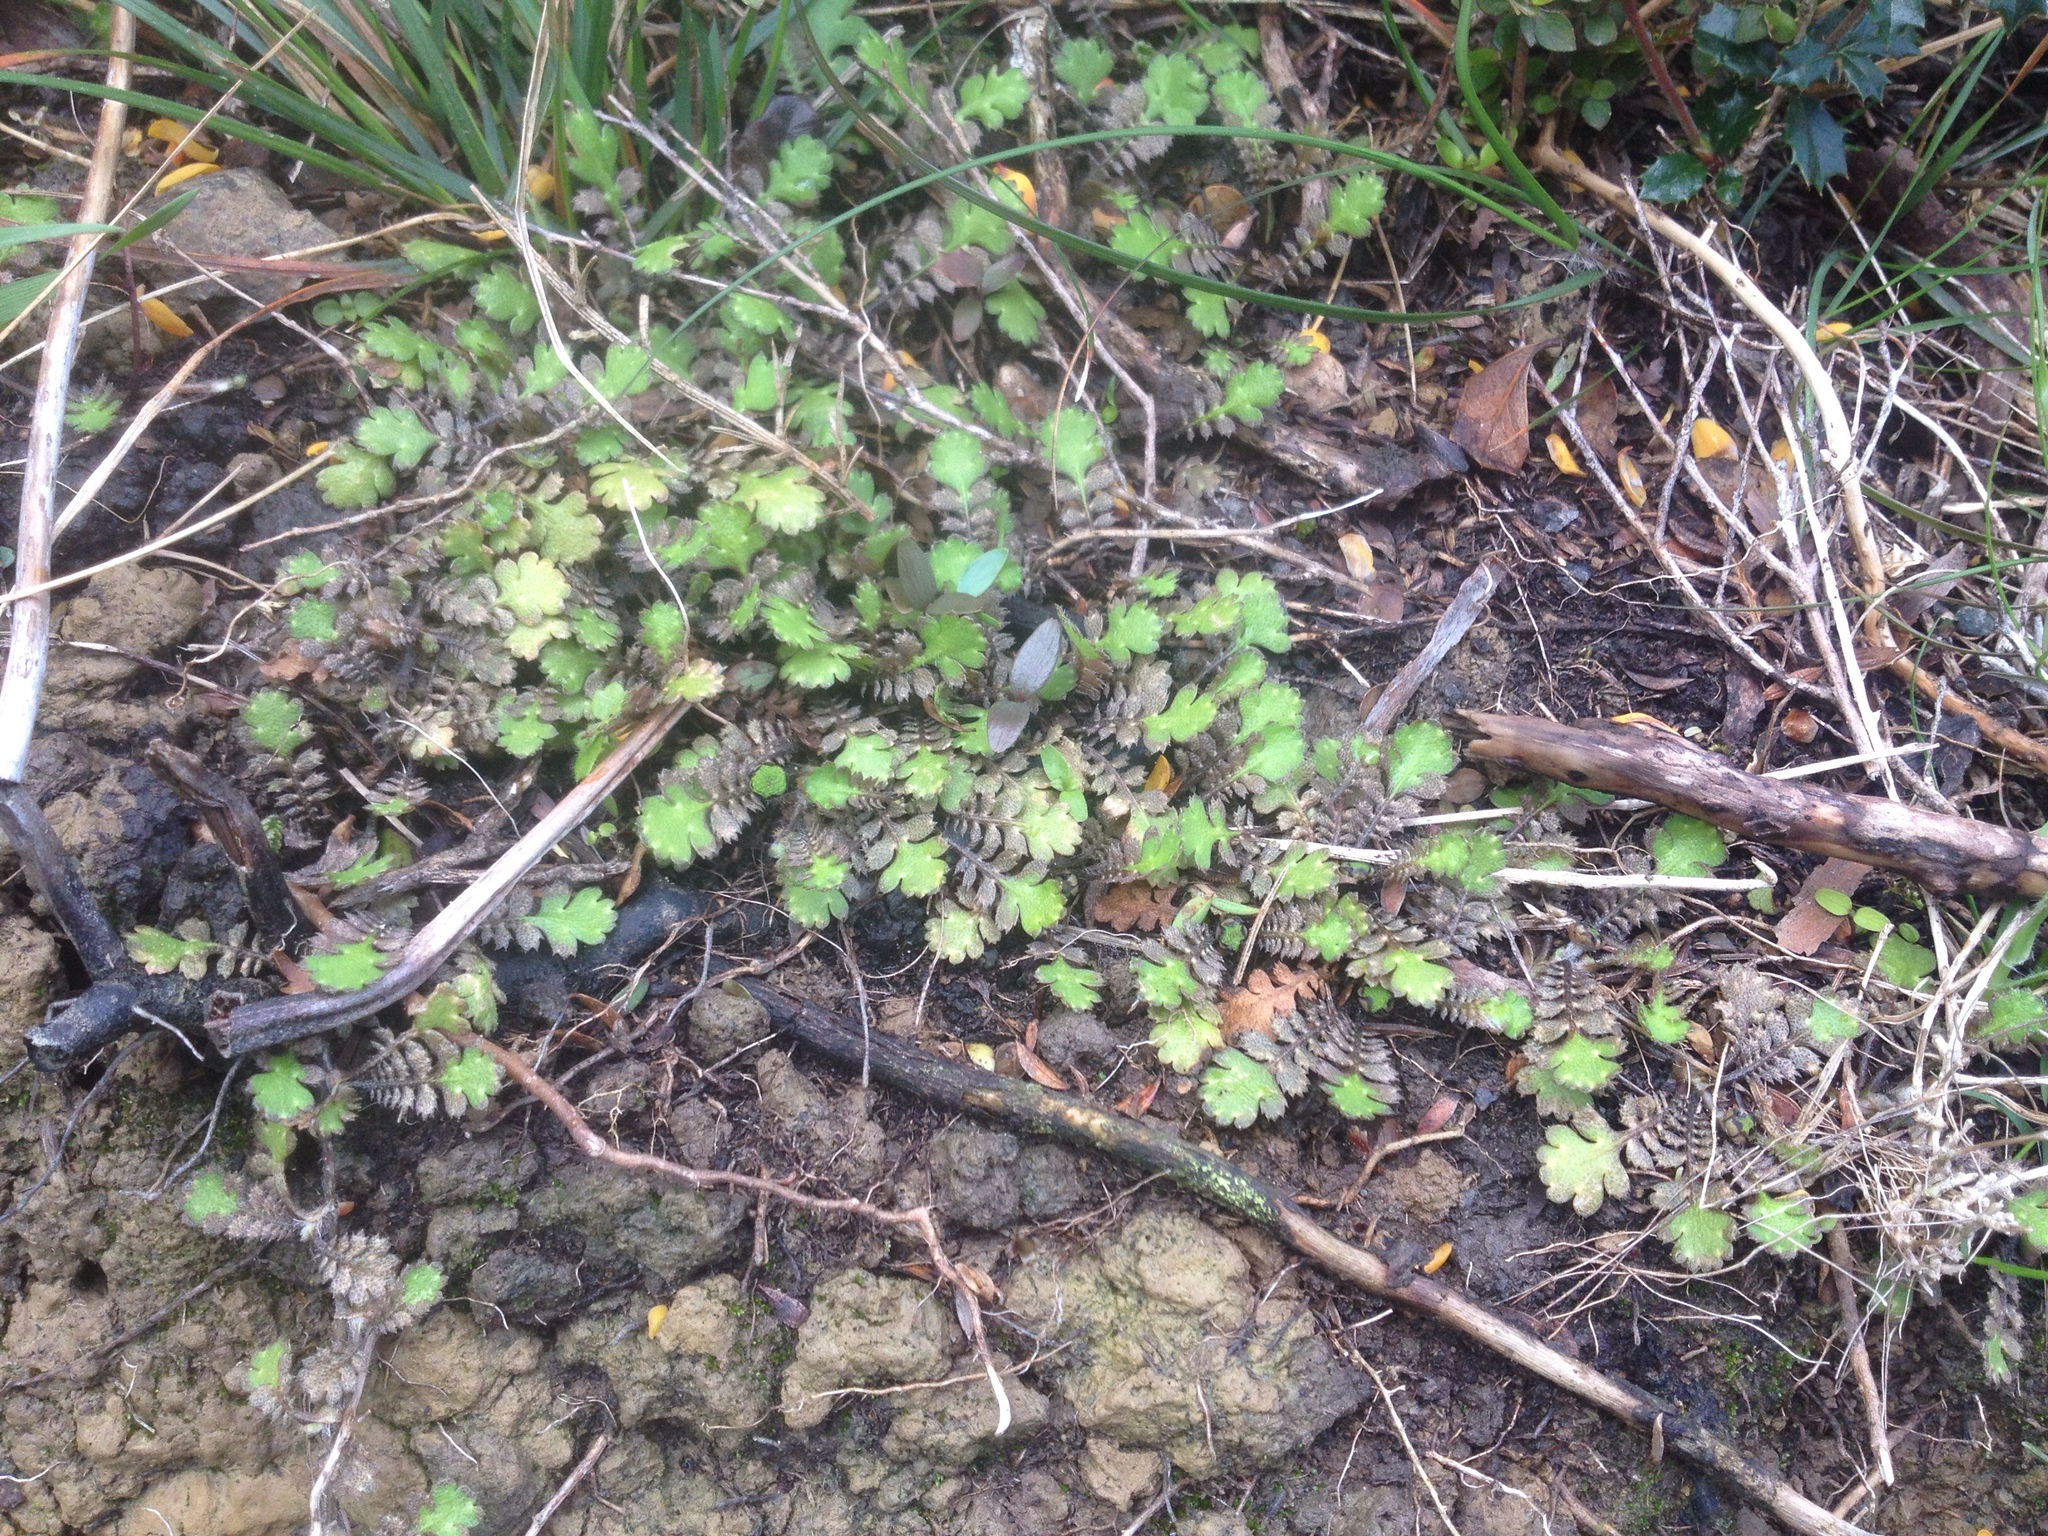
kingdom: Plantae
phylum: Tracheophyta
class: Magnoliopsida
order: Asterales
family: Asteraceae
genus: Leptinella
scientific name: Leptinella squalida
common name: New zealand brass-buttons
